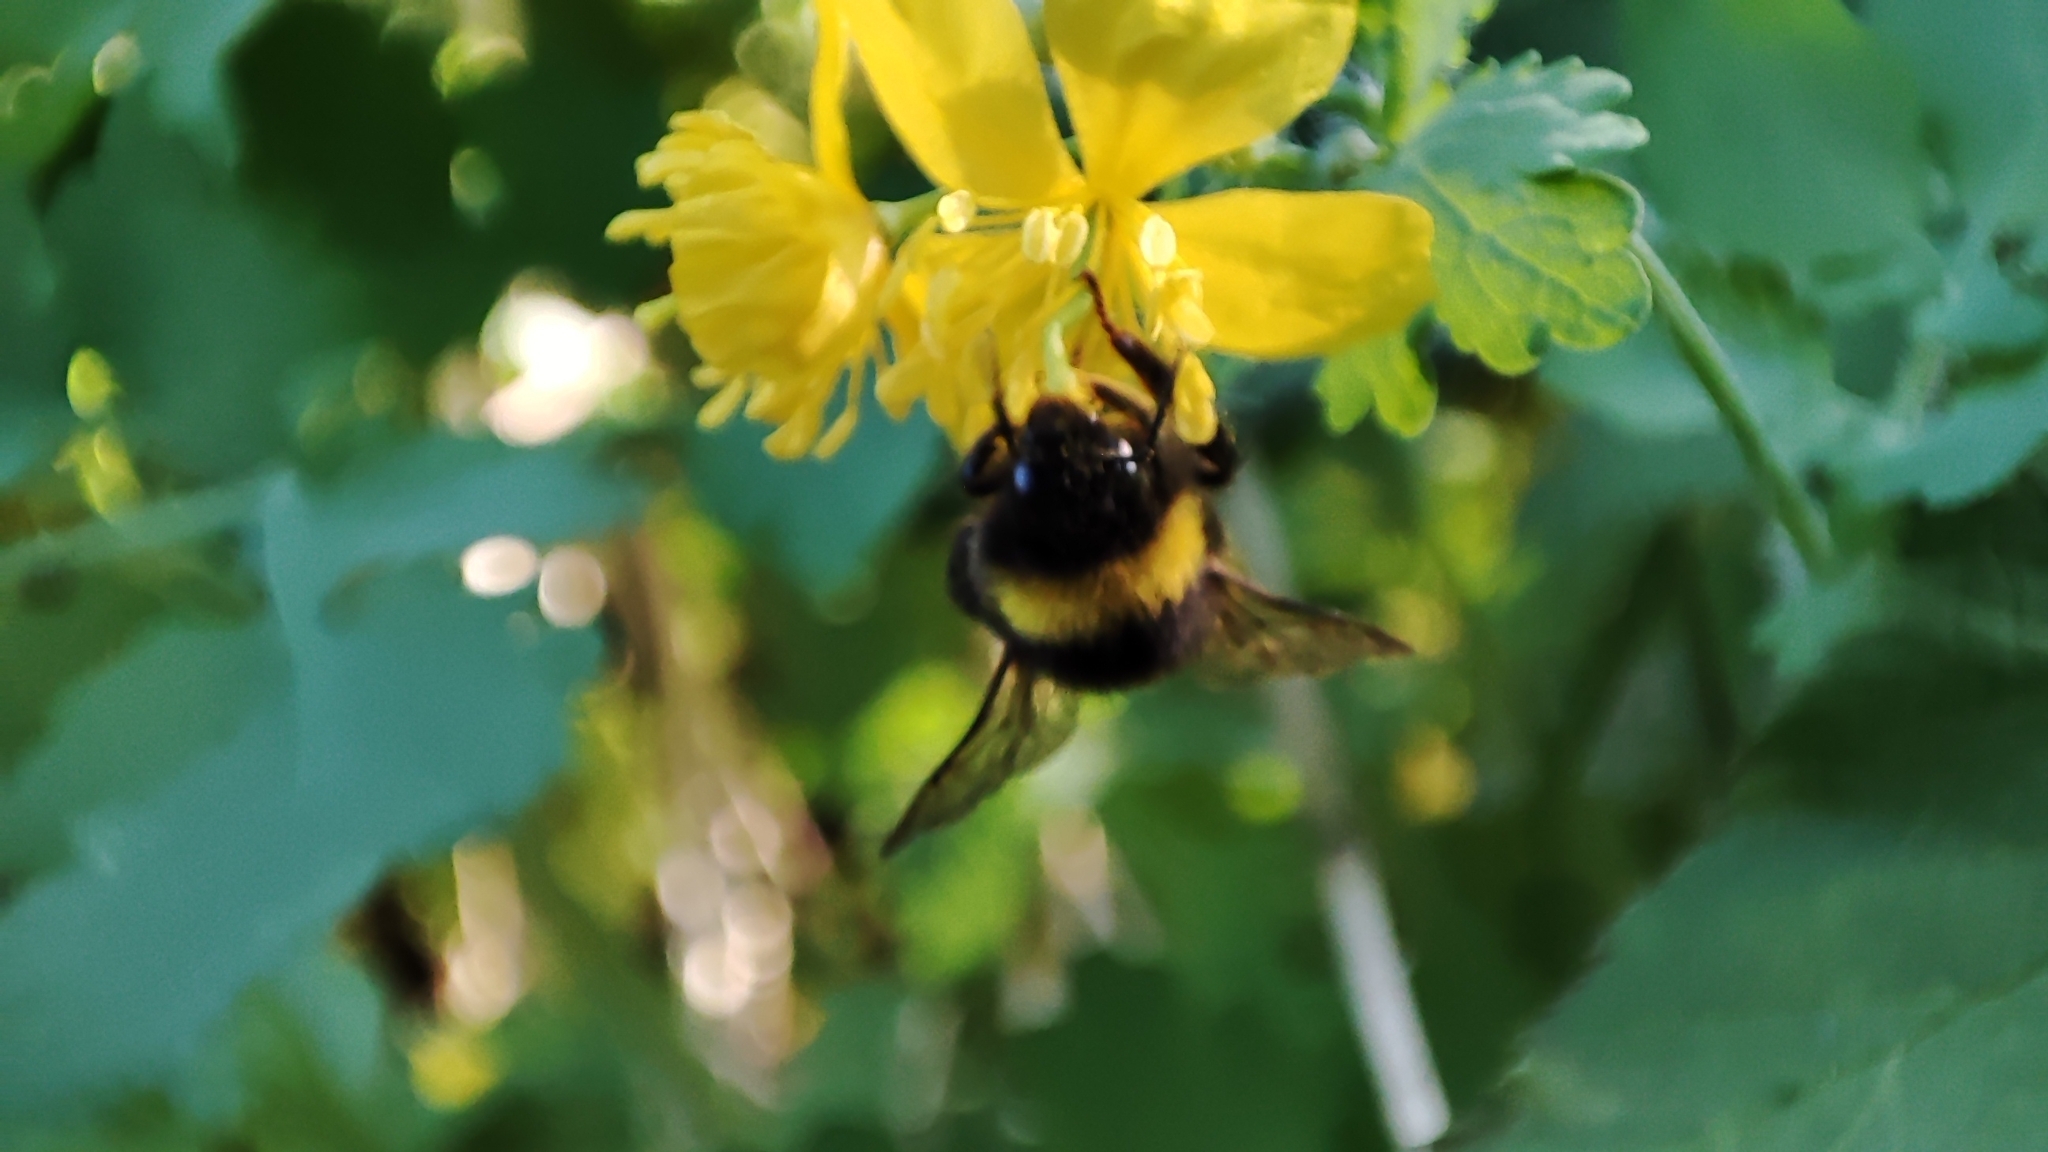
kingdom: Animalia
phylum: Arthropoda
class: Insecta
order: Hymenoptera
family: Apidae
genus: Bombus
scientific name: Bombus
